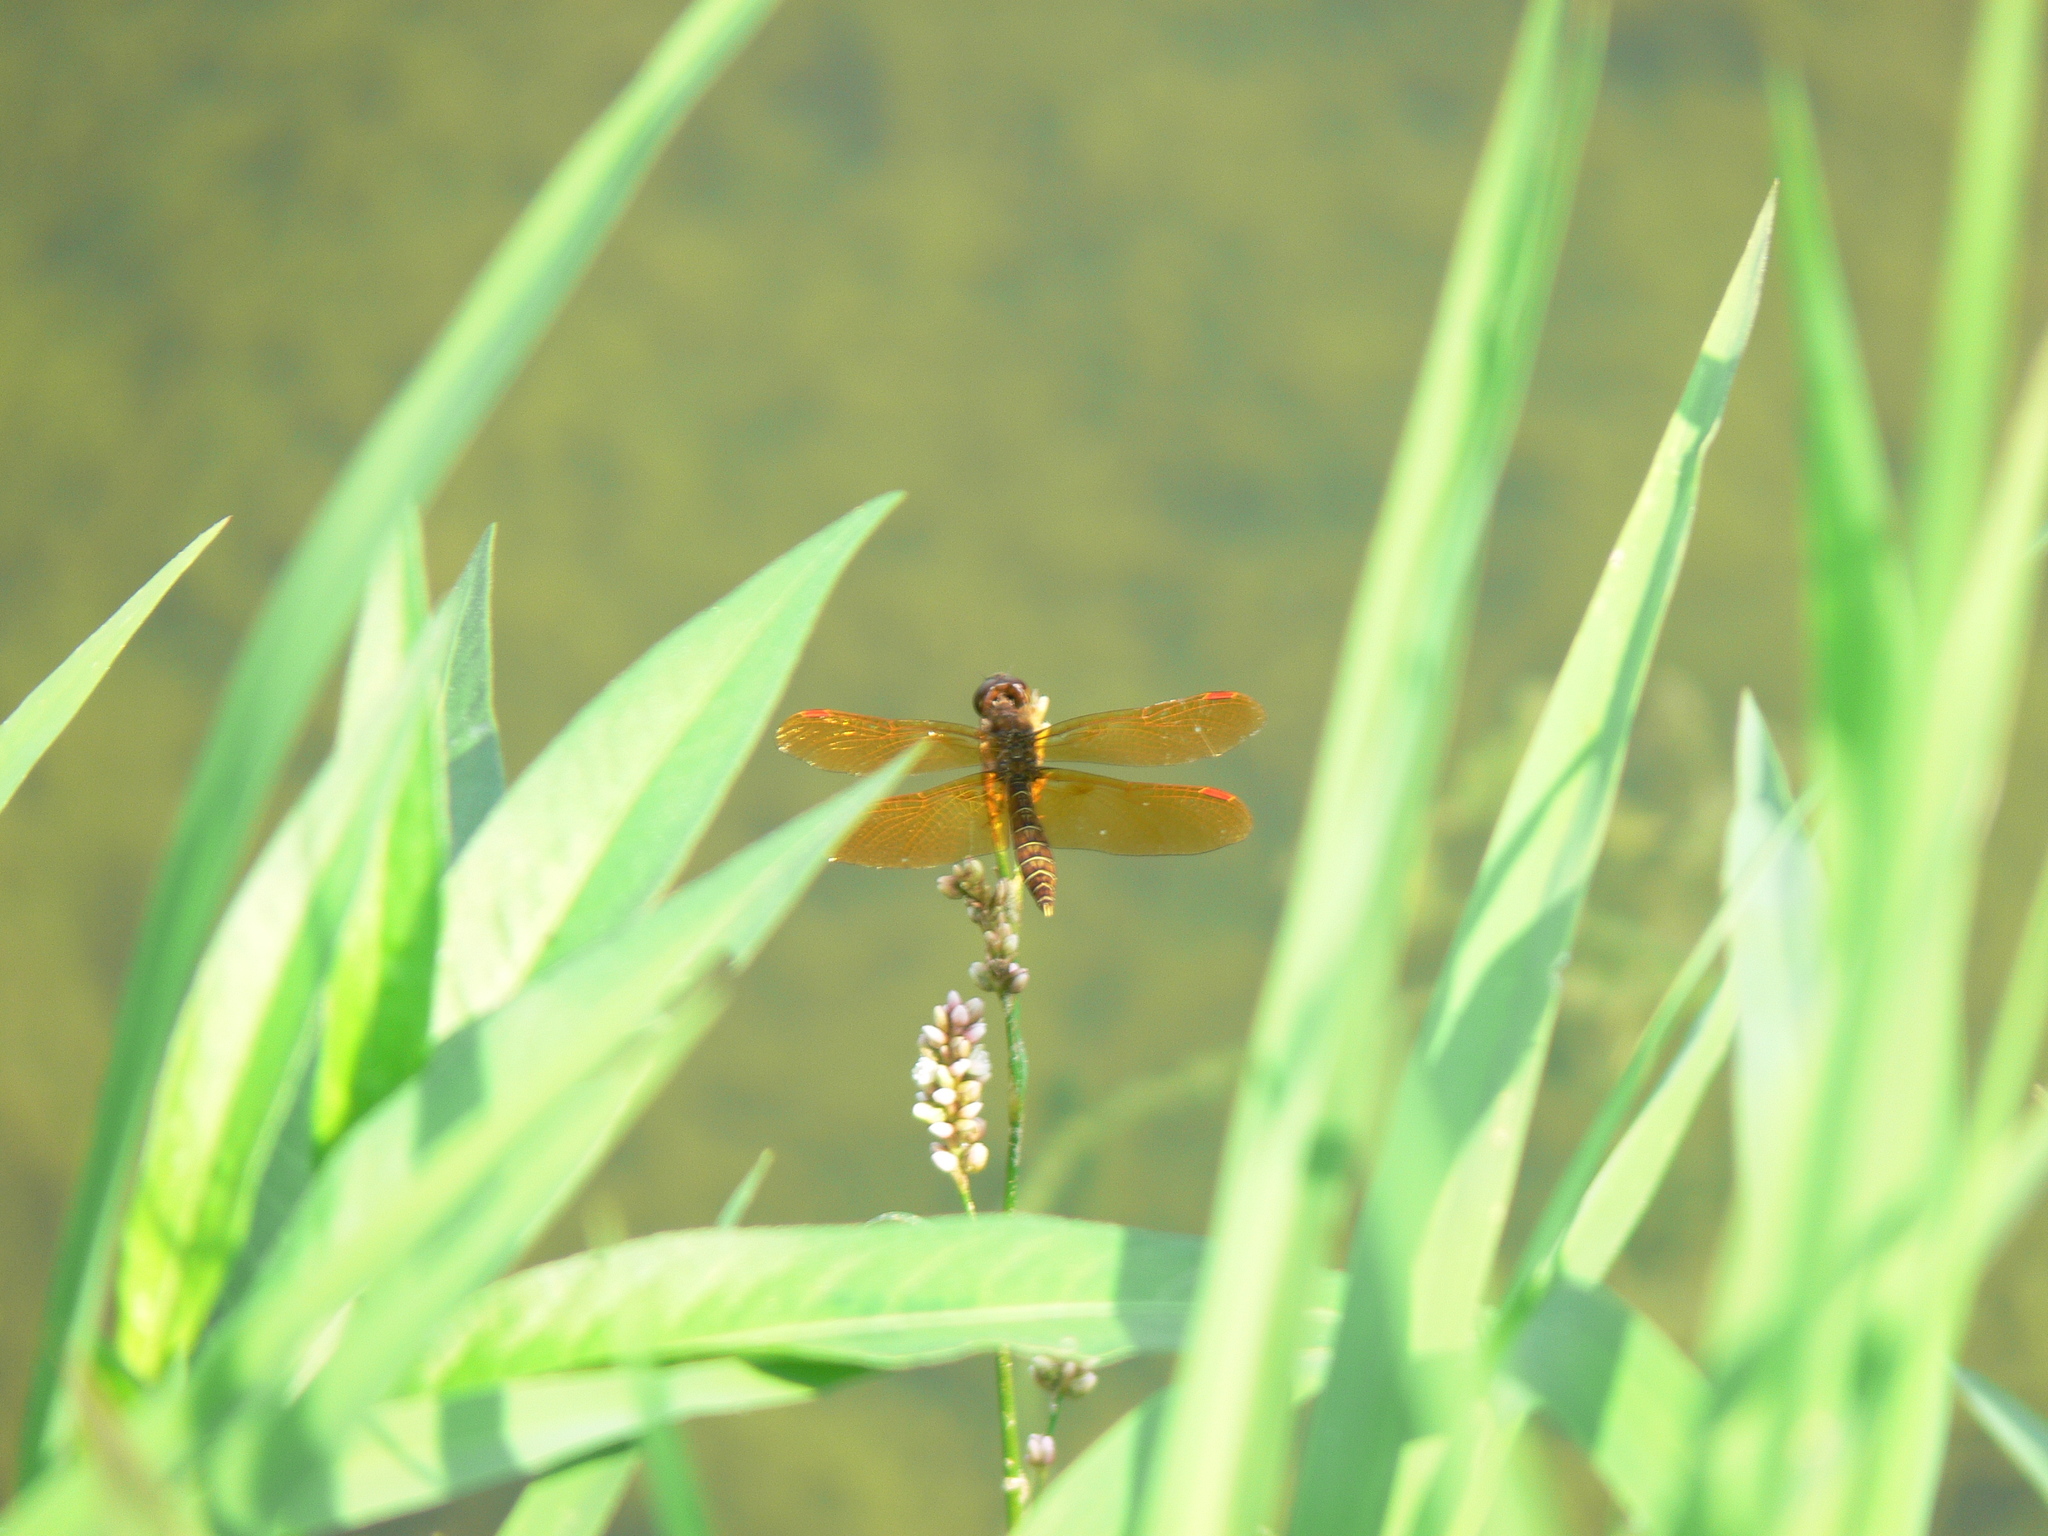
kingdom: Animalia
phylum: Arthropoda
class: Insecta
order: Odonata
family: Libellulidae
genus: Perithemis
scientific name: Perithemis tenera
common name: Eastern amberwing
